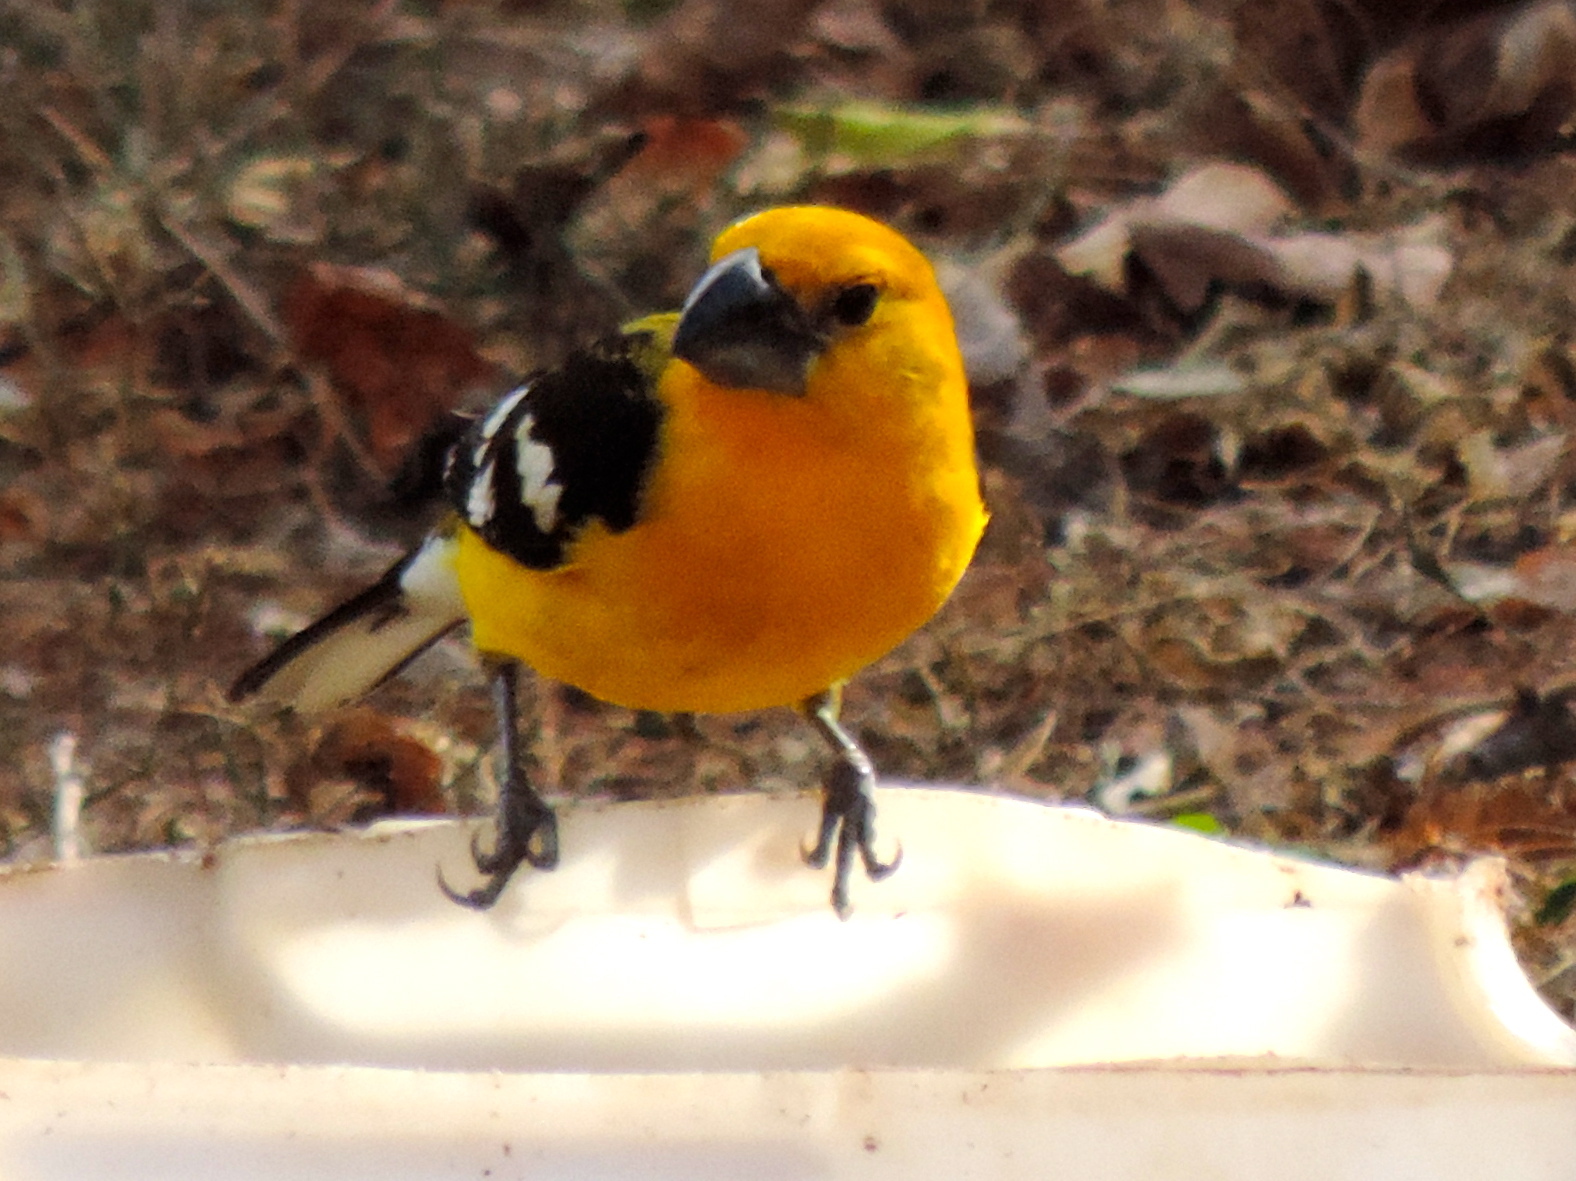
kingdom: Animalia
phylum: Chordata
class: Aves
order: Passeriformes
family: Cardinalidae
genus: Pheucticus
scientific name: Pheucticus chrysopeplus
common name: Yellow grosbeak
